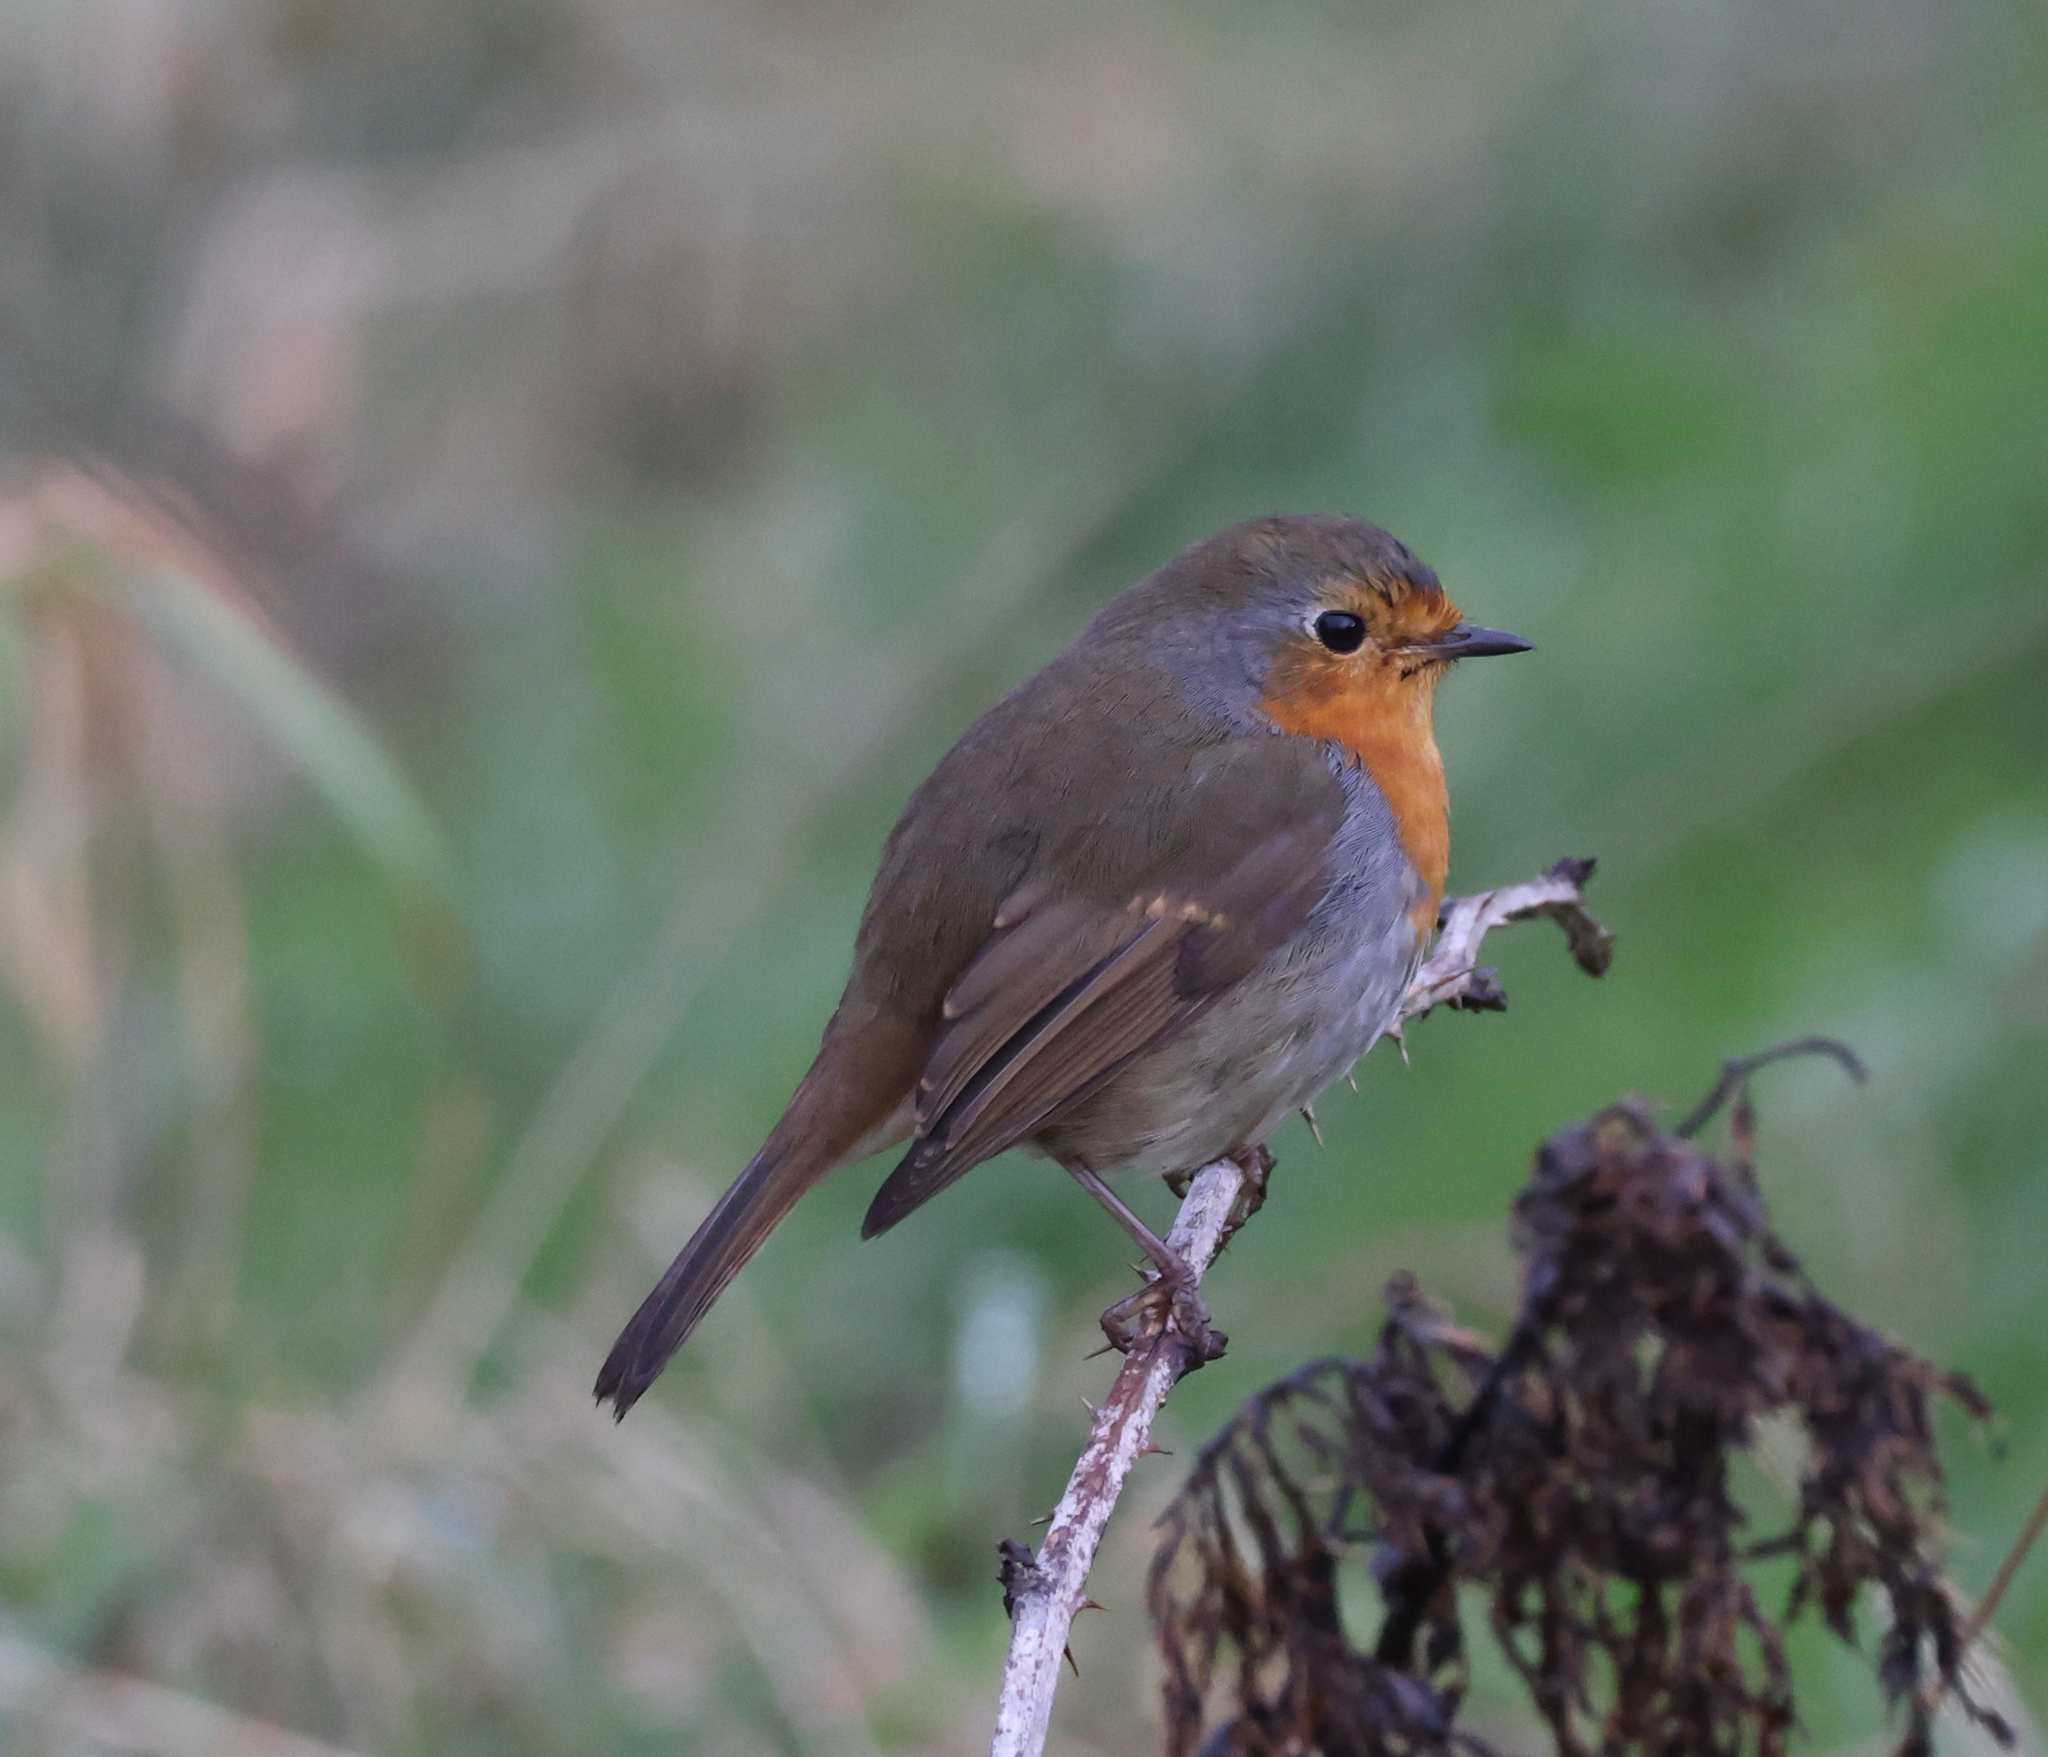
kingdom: Animalia
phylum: Chordata
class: Aves
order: Passeriformes
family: Muscicapidae
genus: Erithacus
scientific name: Erithacus rubecula
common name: European robin
